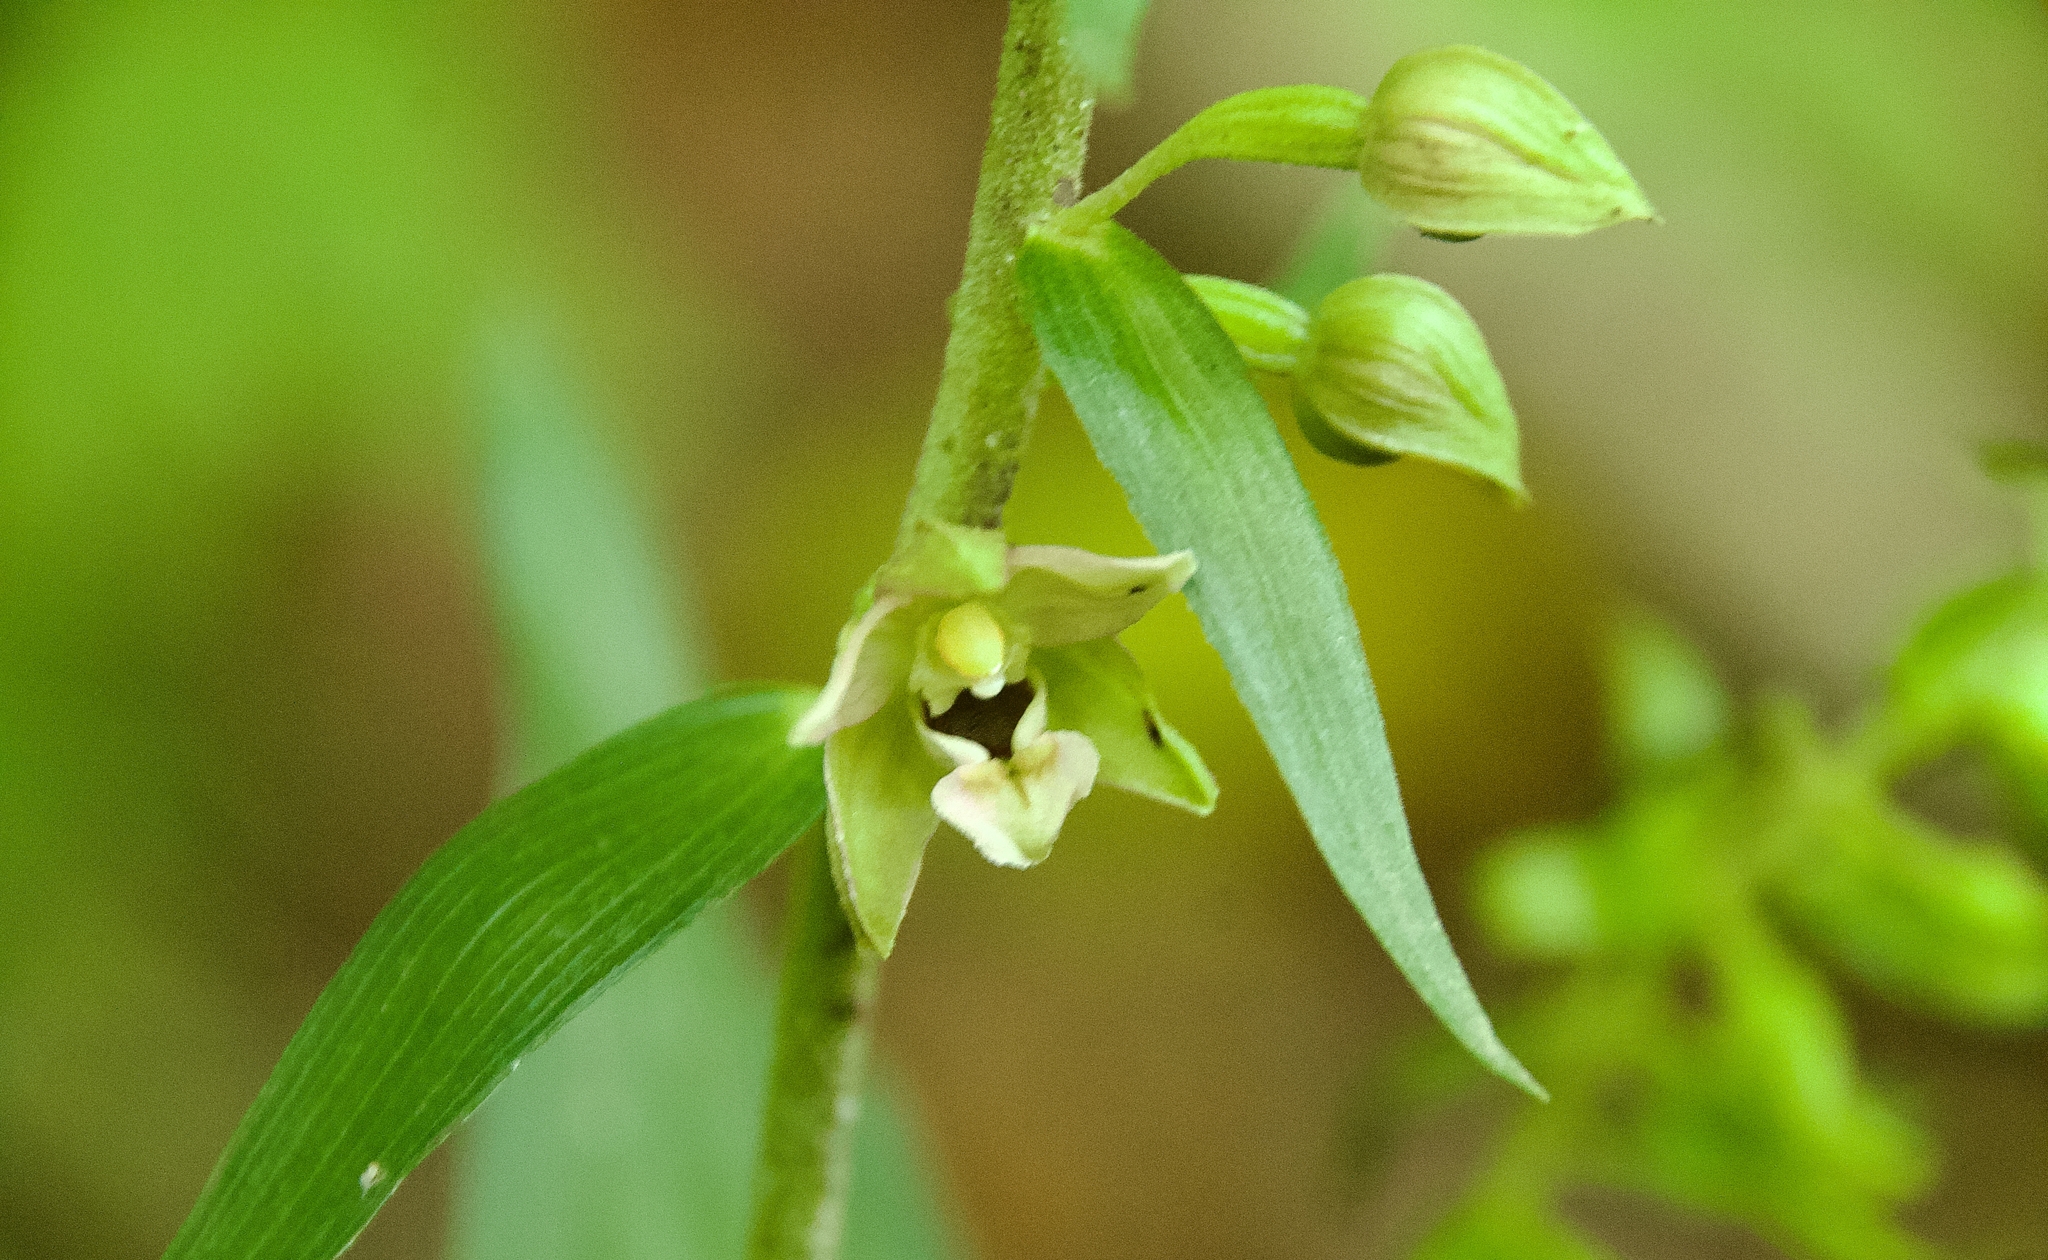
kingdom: Plantae
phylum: Tracheophyta
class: Liliopsida
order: Asparagales
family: Orchidaceae
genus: Epipactis
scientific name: Epipactis helleborine
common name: Broad-leaved helleborine
